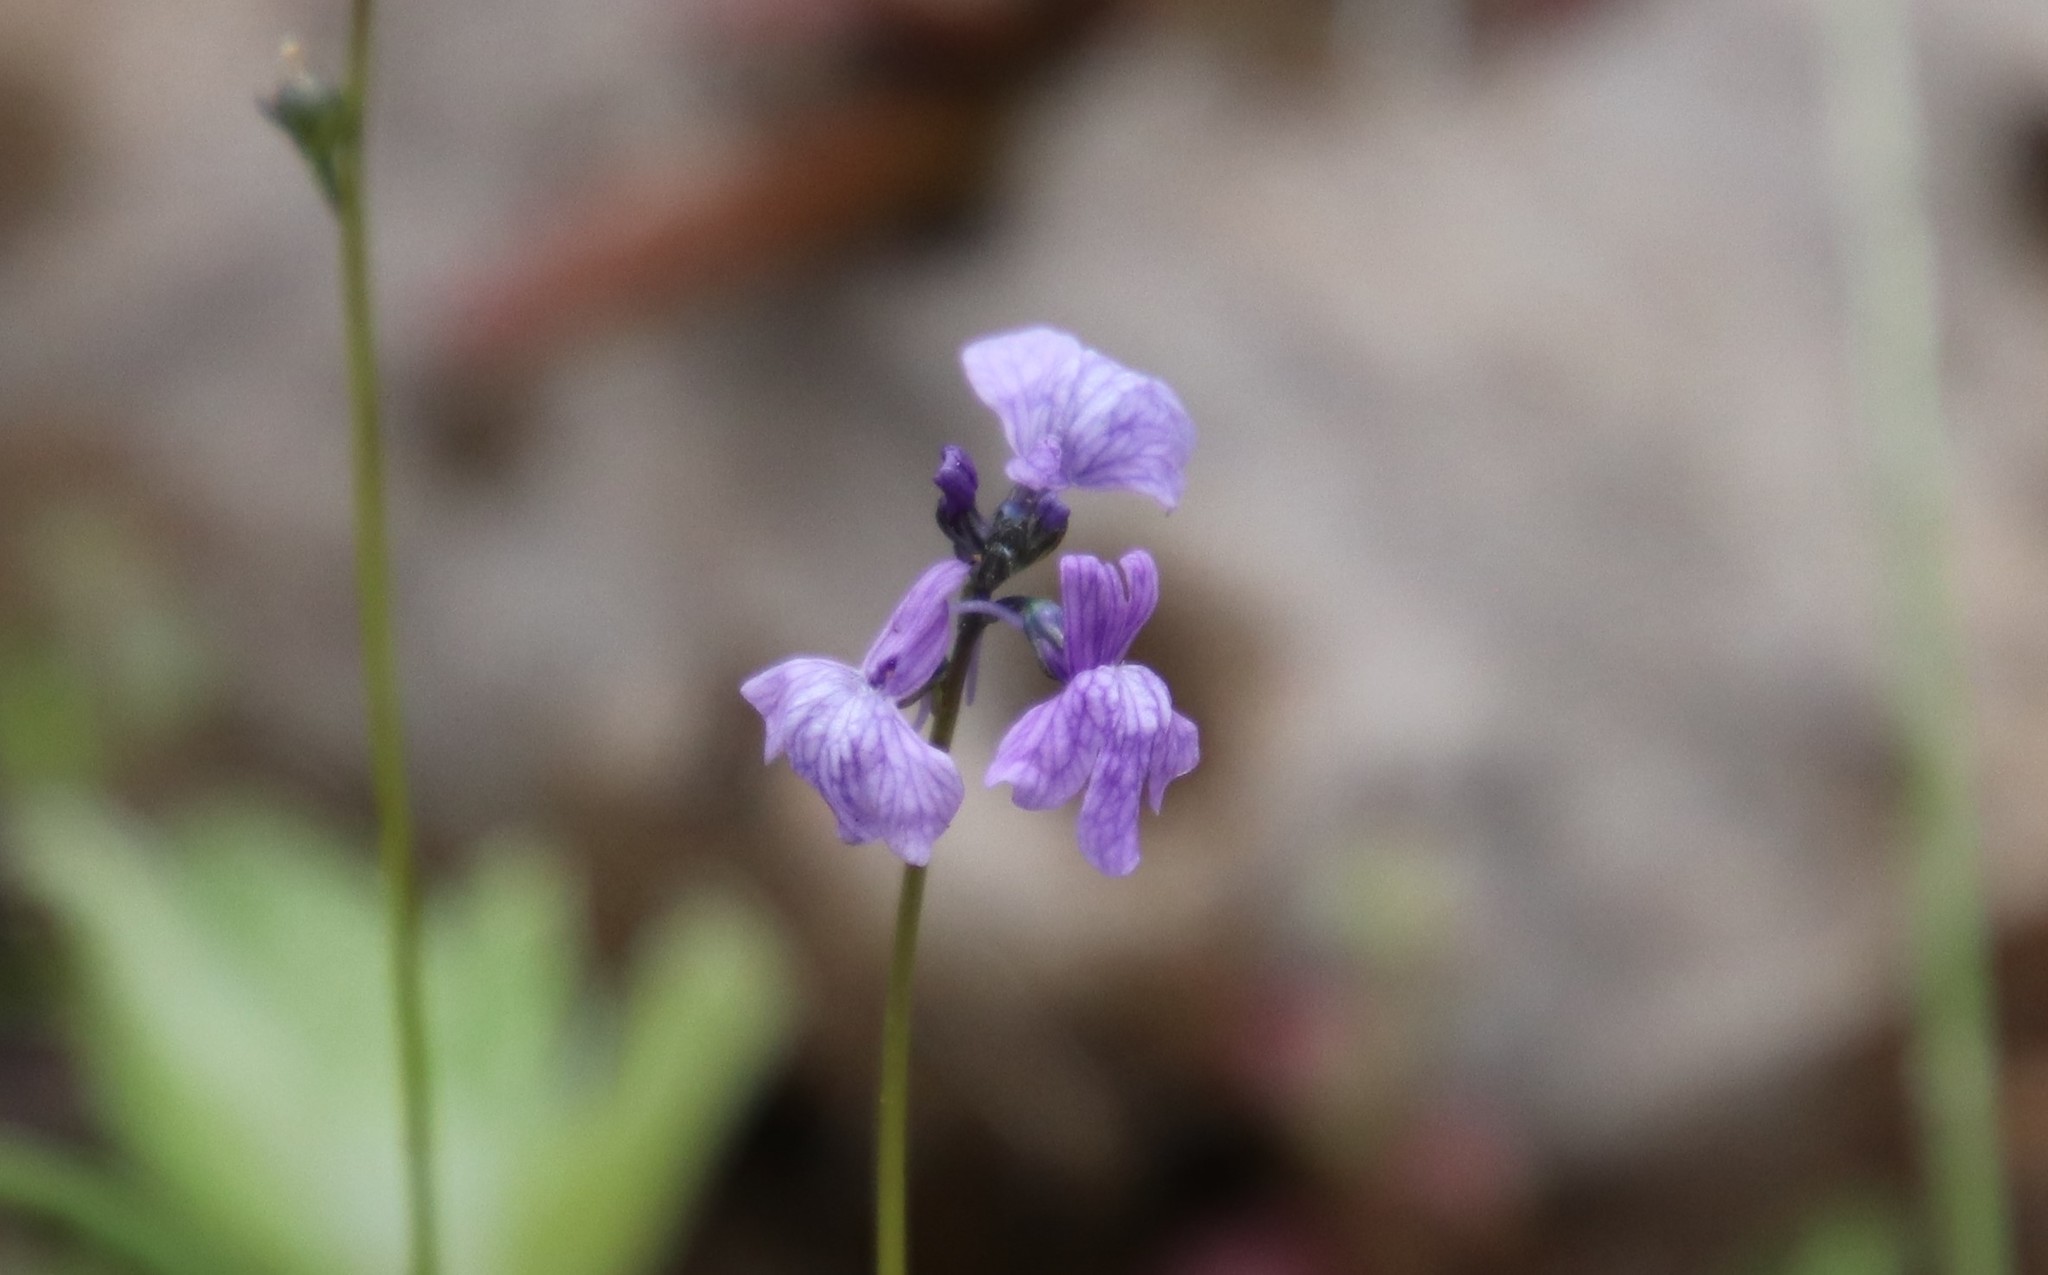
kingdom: Plantae
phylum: Tracheophyta
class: Magnoliopsida
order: Lamiales
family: Plantaginaceae
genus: Nuttallanthus
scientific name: Nuttallanthus texanus
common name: Texas toadflax
